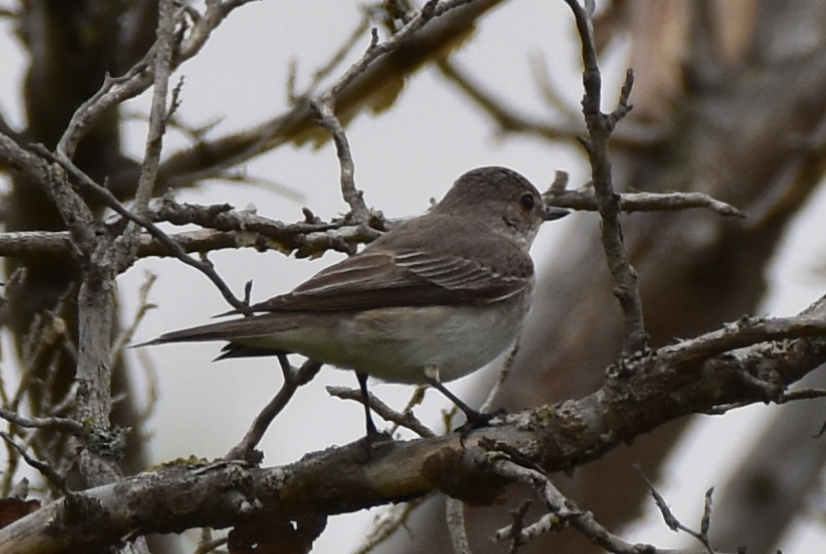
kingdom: Animalia
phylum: Chordata
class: Aves
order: Passeriformes
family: Muscicapidae
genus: Muscicapa
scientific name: Muscicapa striata
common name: Spotted flycatcher
